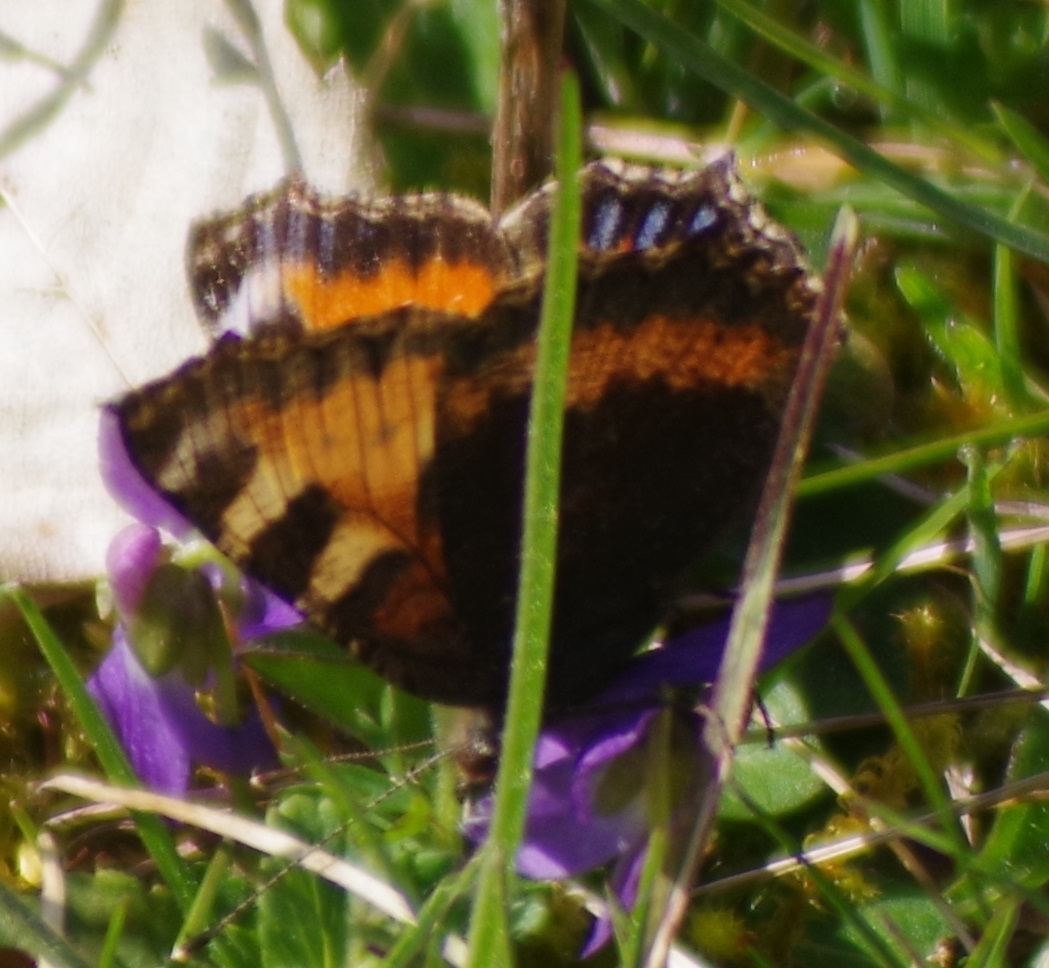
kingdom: Animalia
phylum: Arthropoda
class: Insecta
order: Lepidoptera
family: Nymphalidae
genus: Aglais
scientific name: Aglais urticae
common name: Small tortoiseshell
